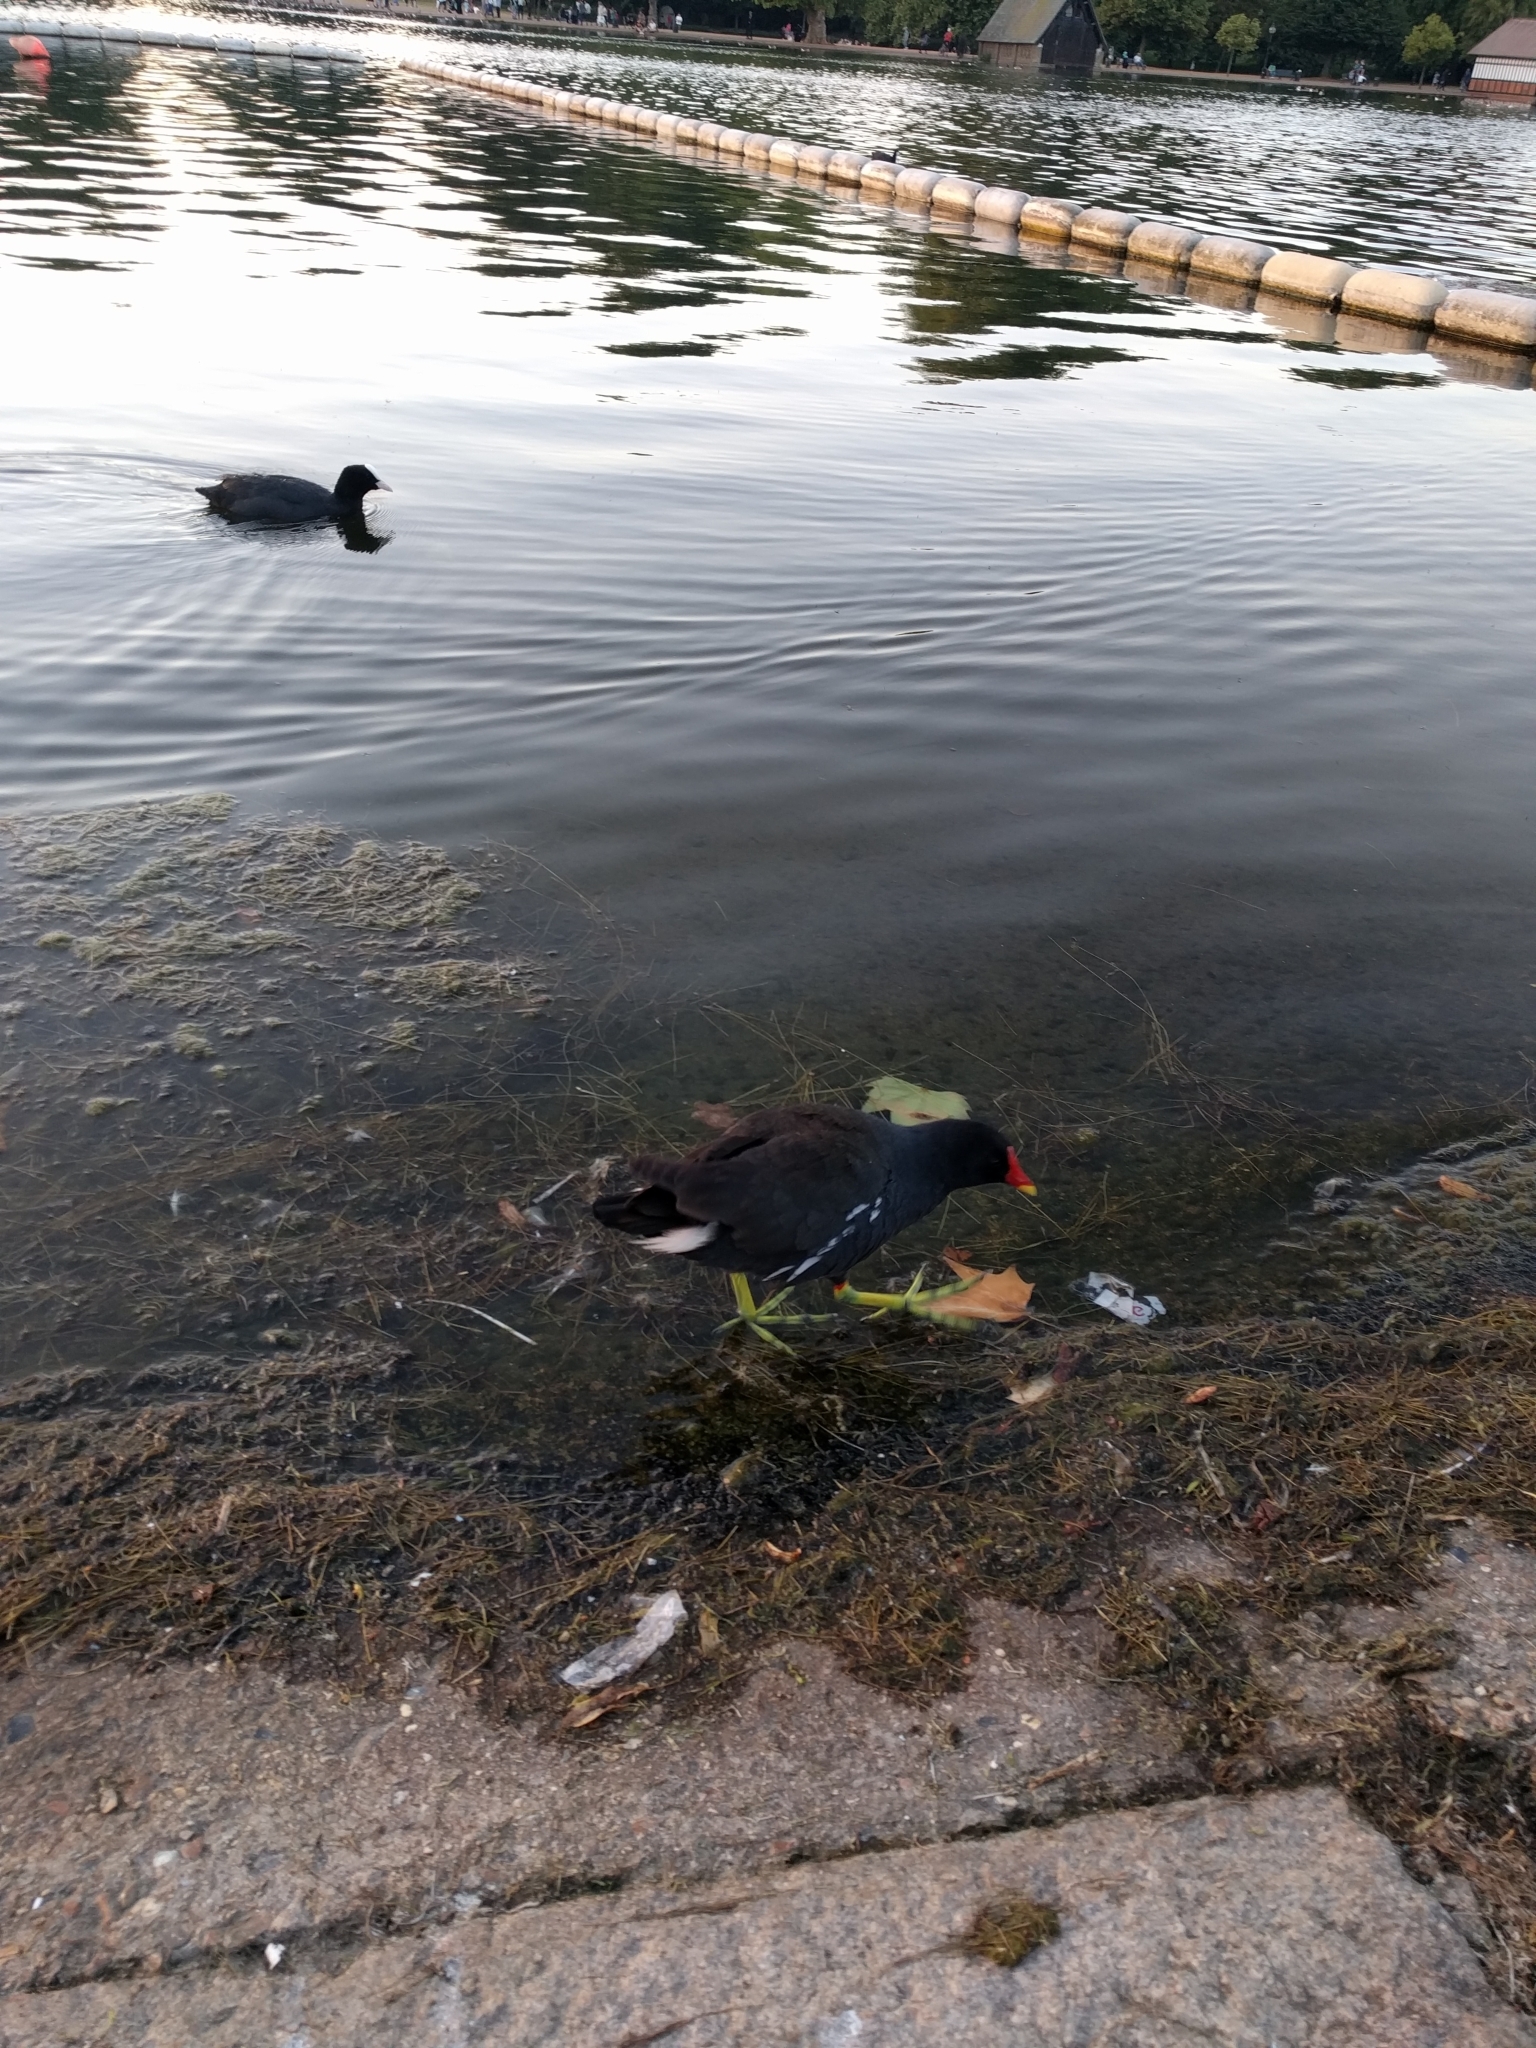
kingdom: Animalia
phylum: Chordata
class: Aves
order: Gruiformes
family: Rallidae
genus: Gallinula
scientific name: Gallinula chloropus
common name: Common moorhen
